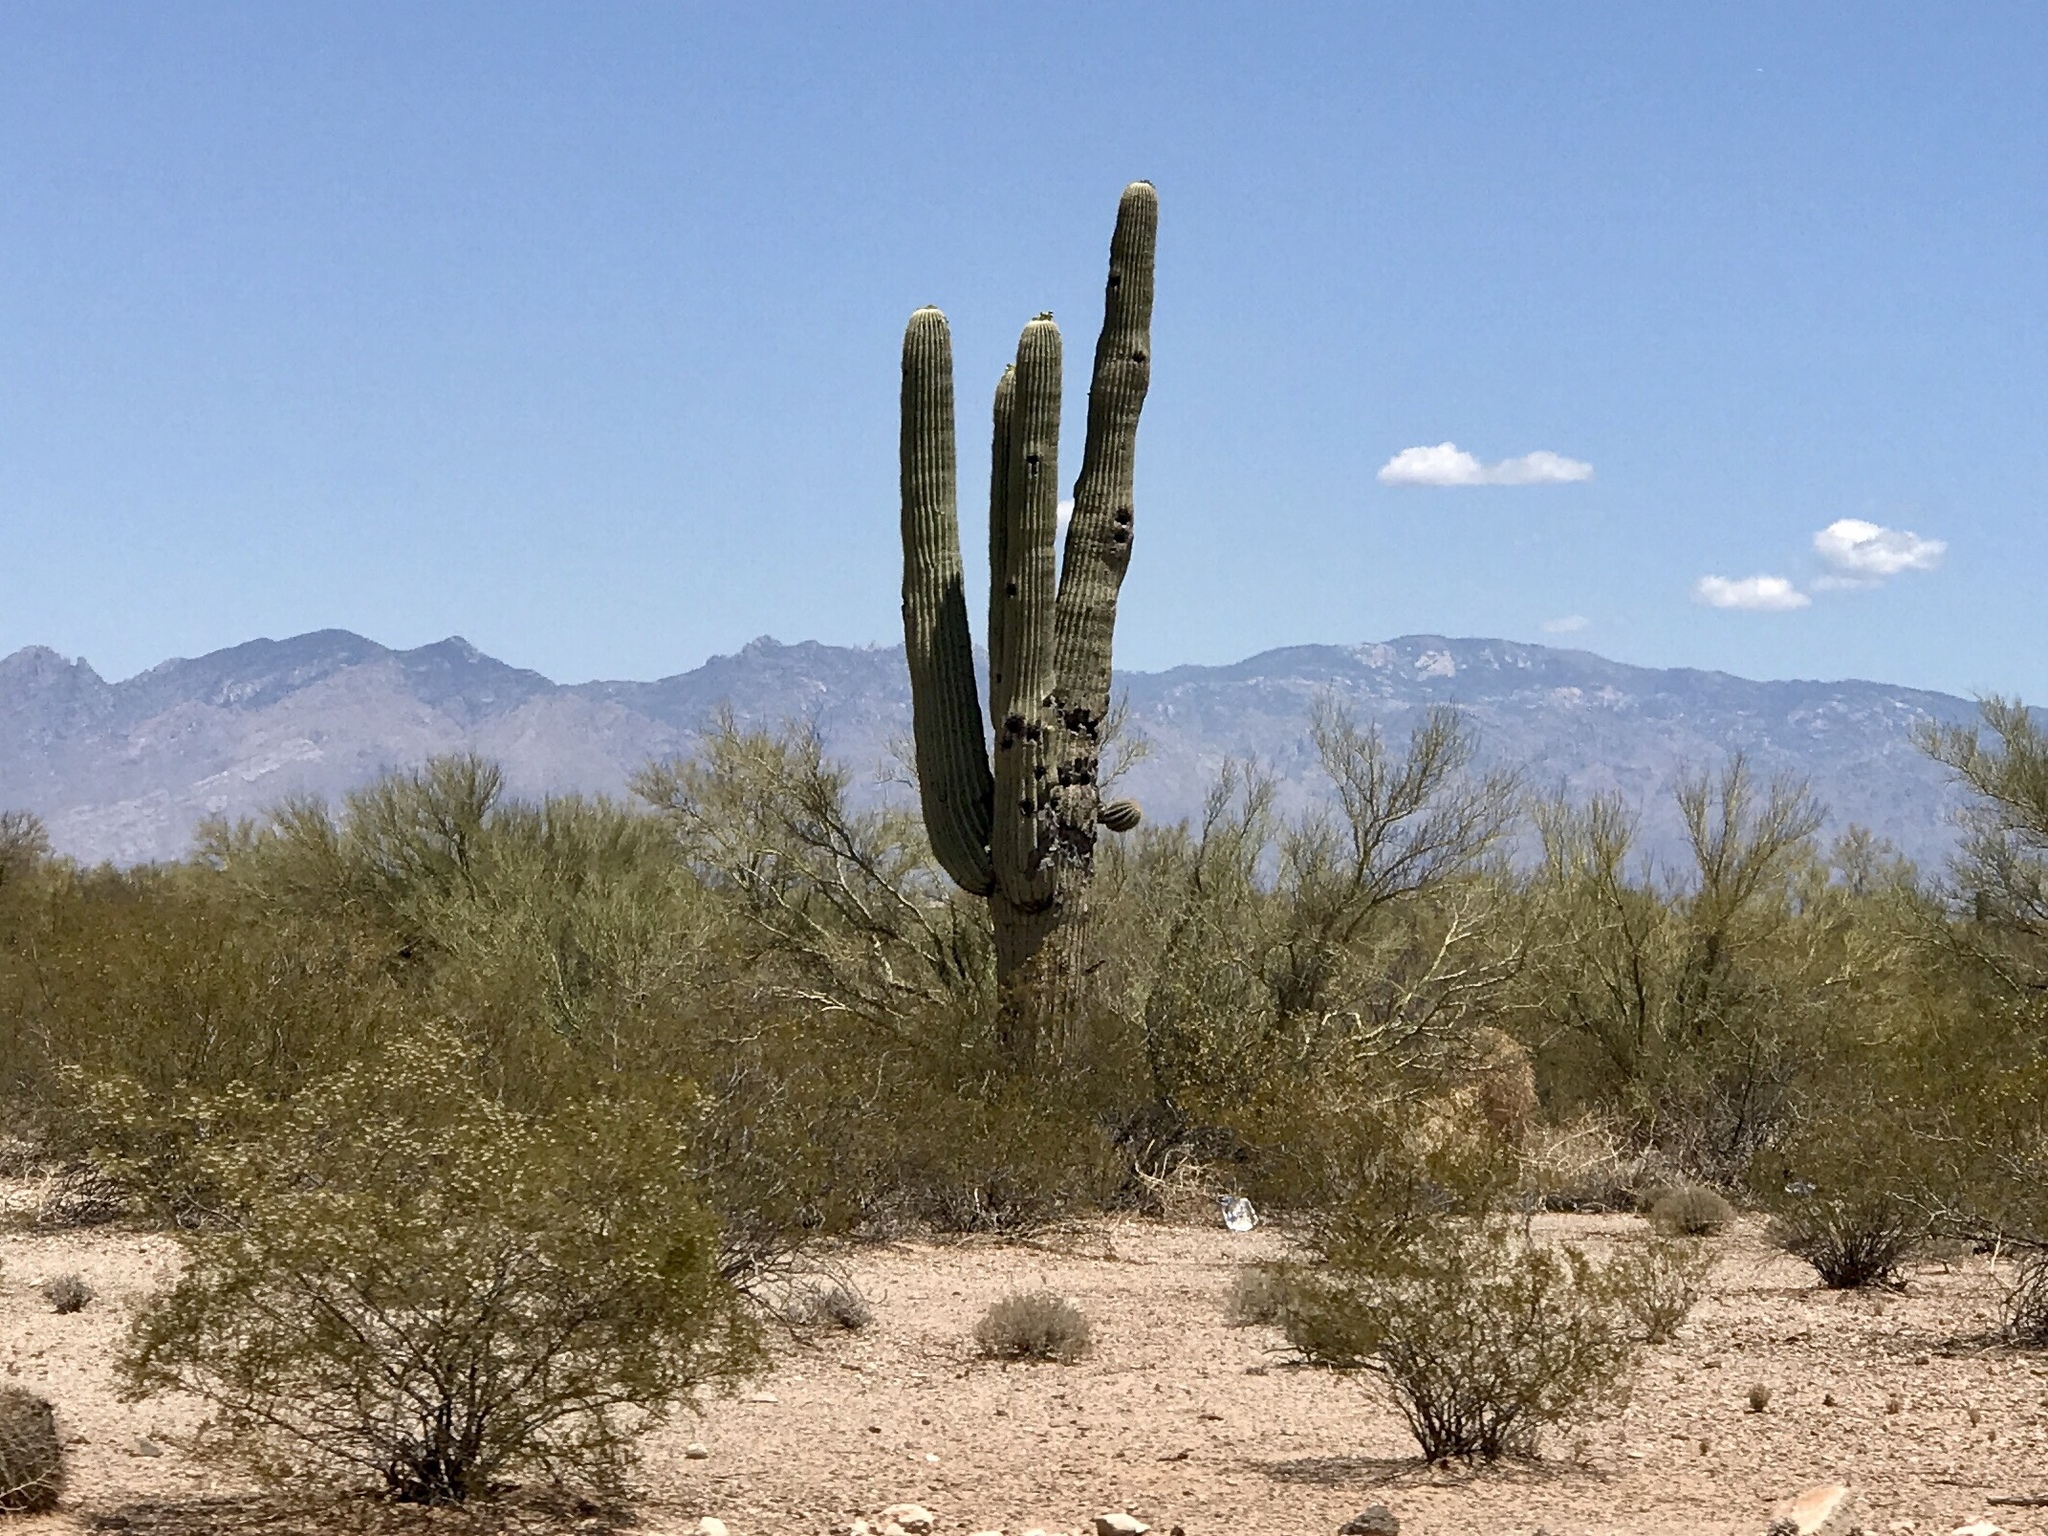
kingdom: Plantae
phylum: Tracheophyta
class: Magnoliopsida
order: Caryophyllales
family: Cactaceae
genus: Carnegiea
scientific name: Carnegiea gigantea
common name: Saguaro
